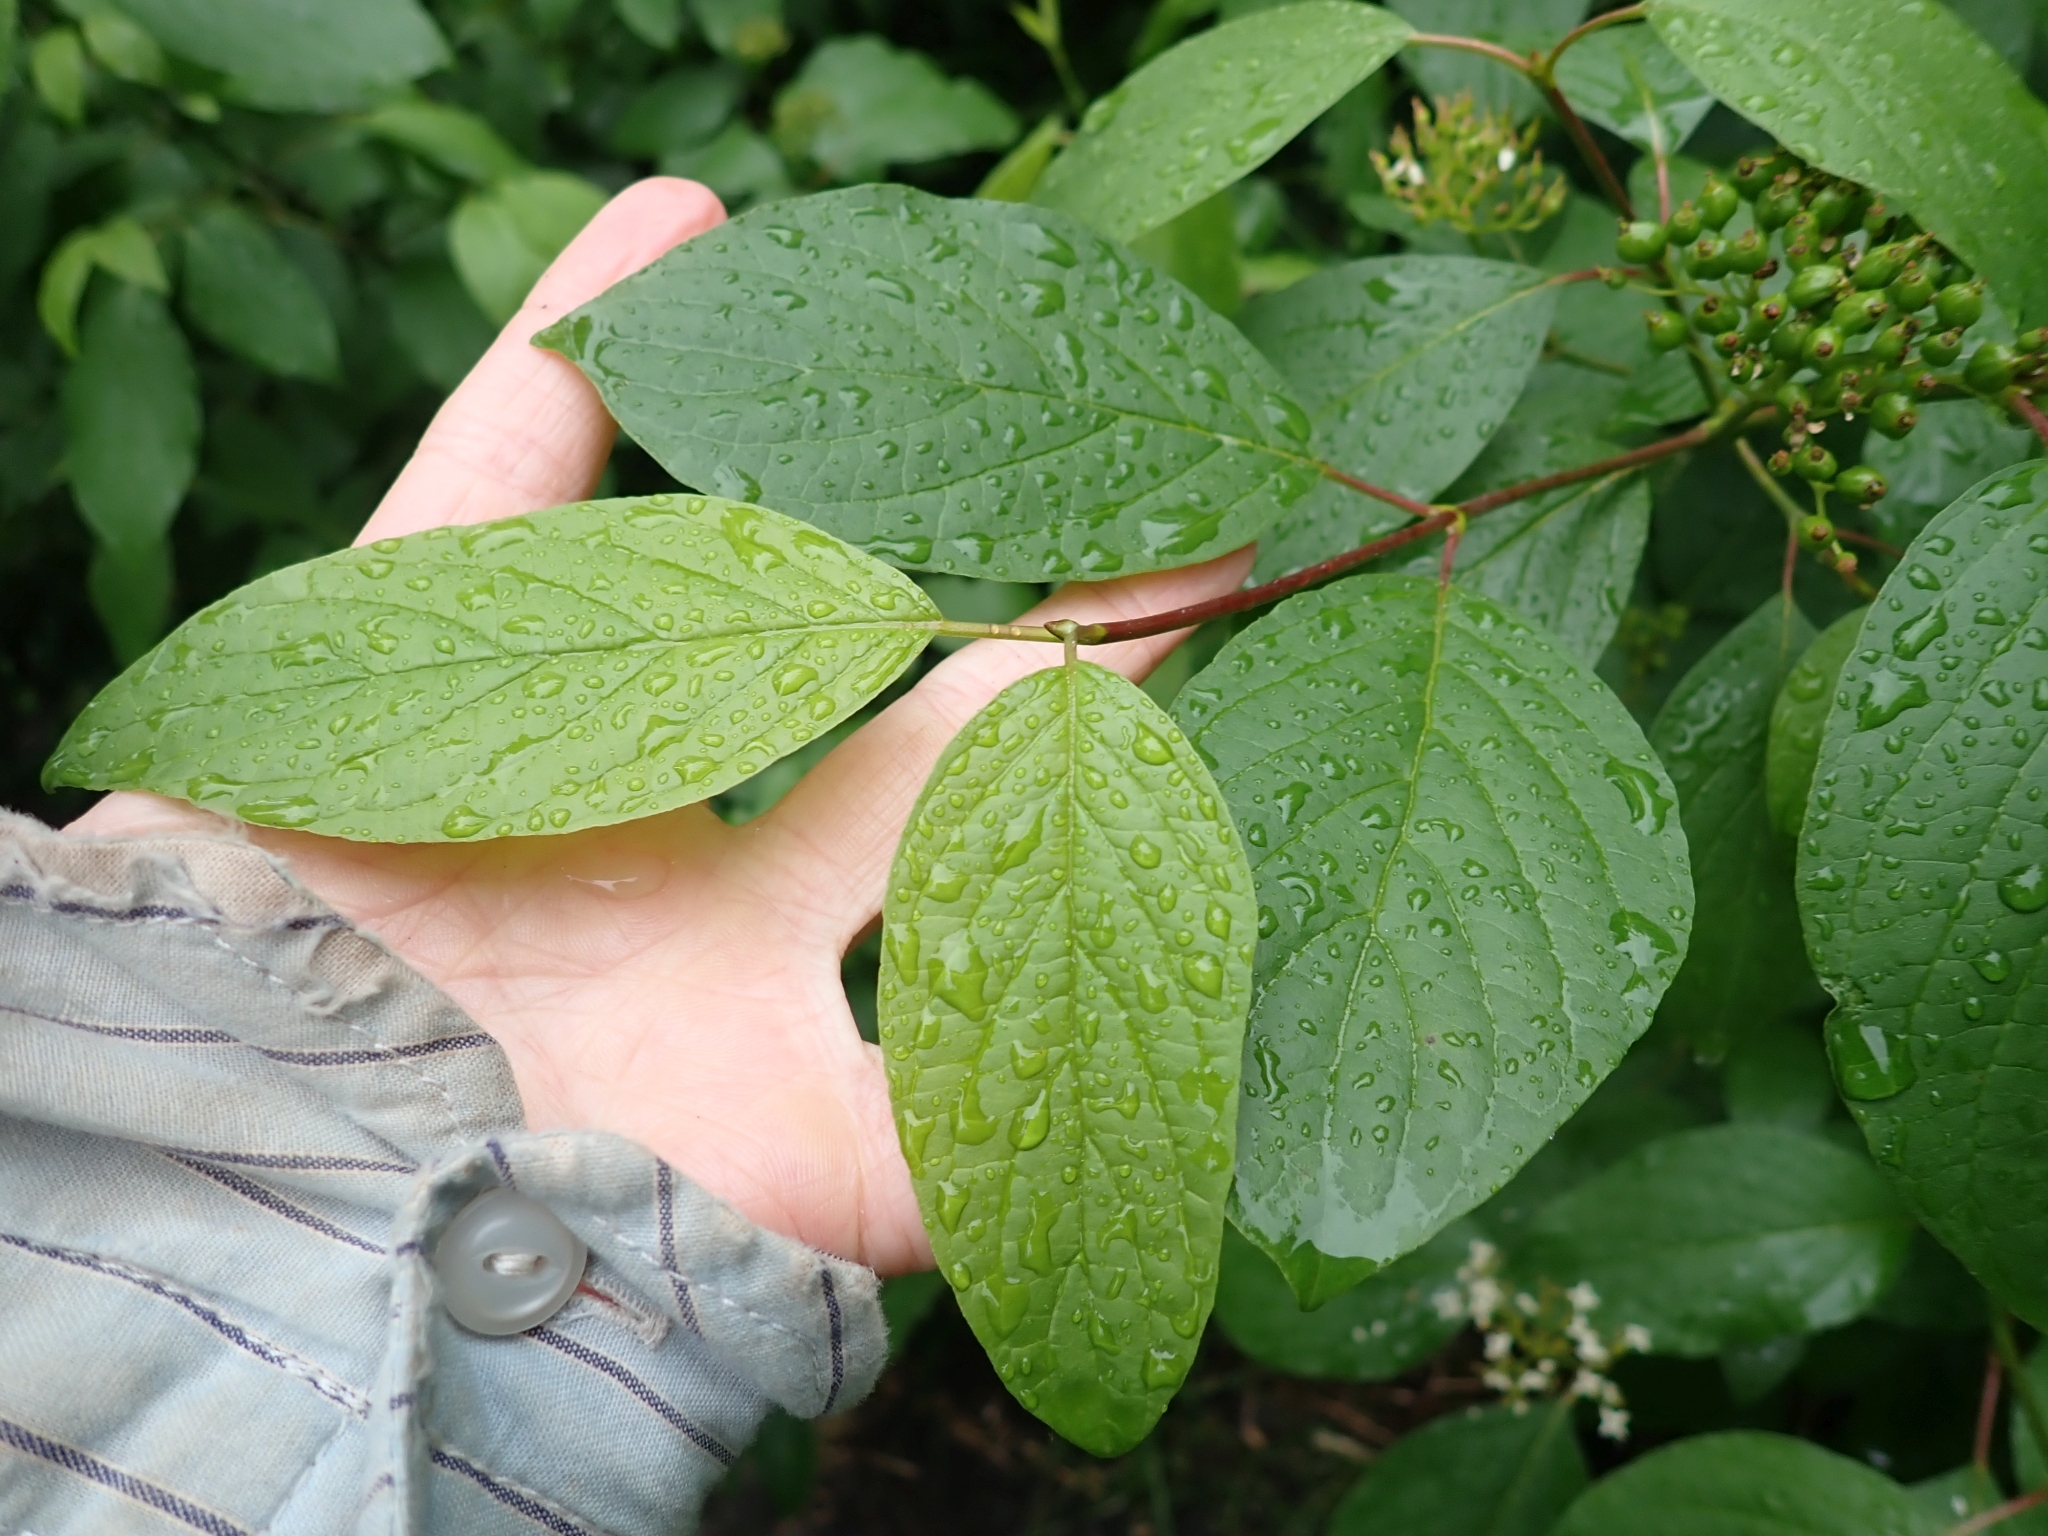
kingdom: Plantae
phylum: Tracheophyta
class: Magnoliopsida
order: Cornales
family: Cornaceae
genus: Cornus
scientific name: Cornus sericea
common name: Red-osier dogwood
